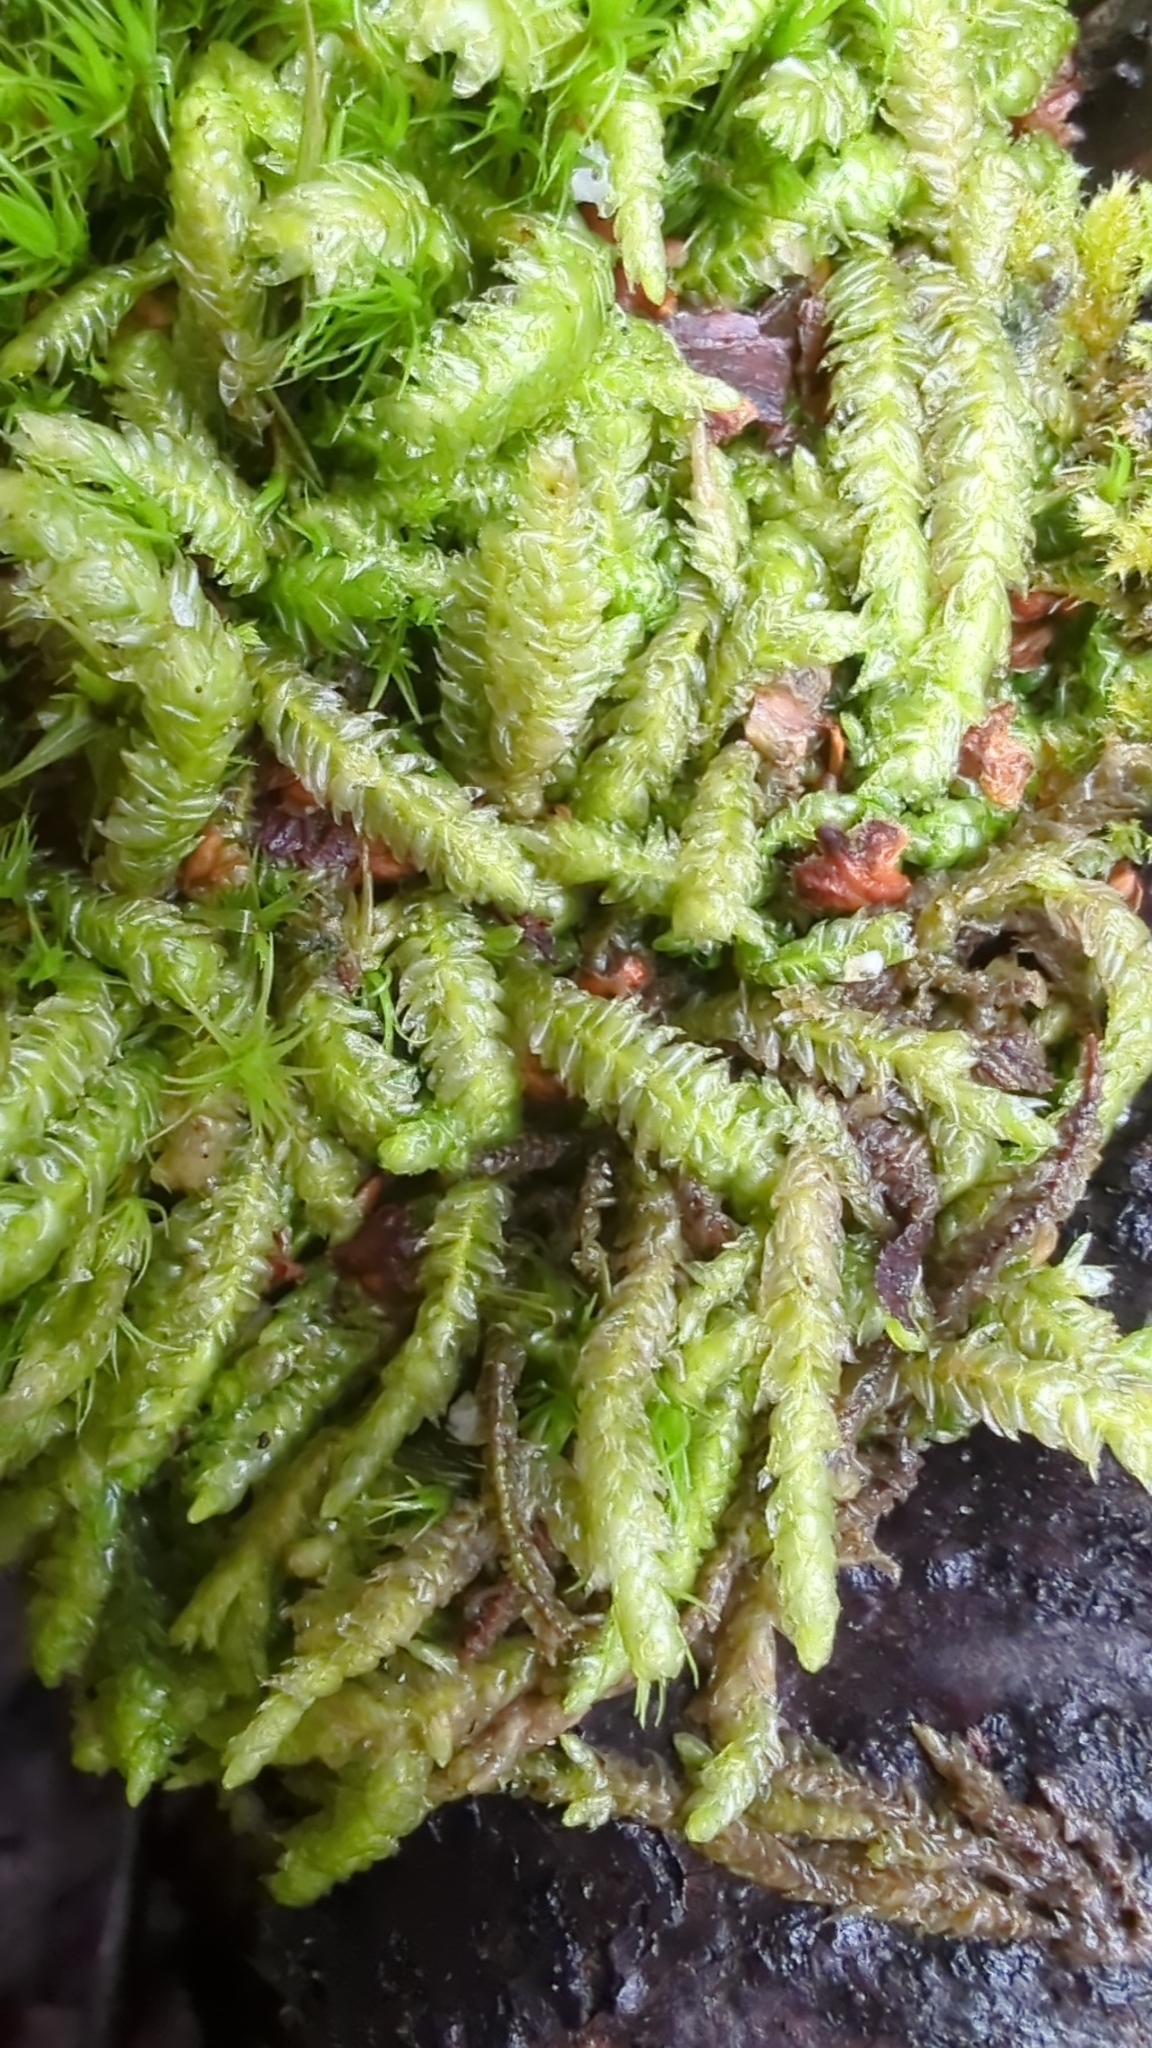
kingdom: Plantae
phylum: Bryophyta
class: Bryopsida
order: Hypnales
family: Plagiotheciaceae
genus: Plagiothecium
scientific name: Plagiothecium undulatum
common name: Waved silk-moss
